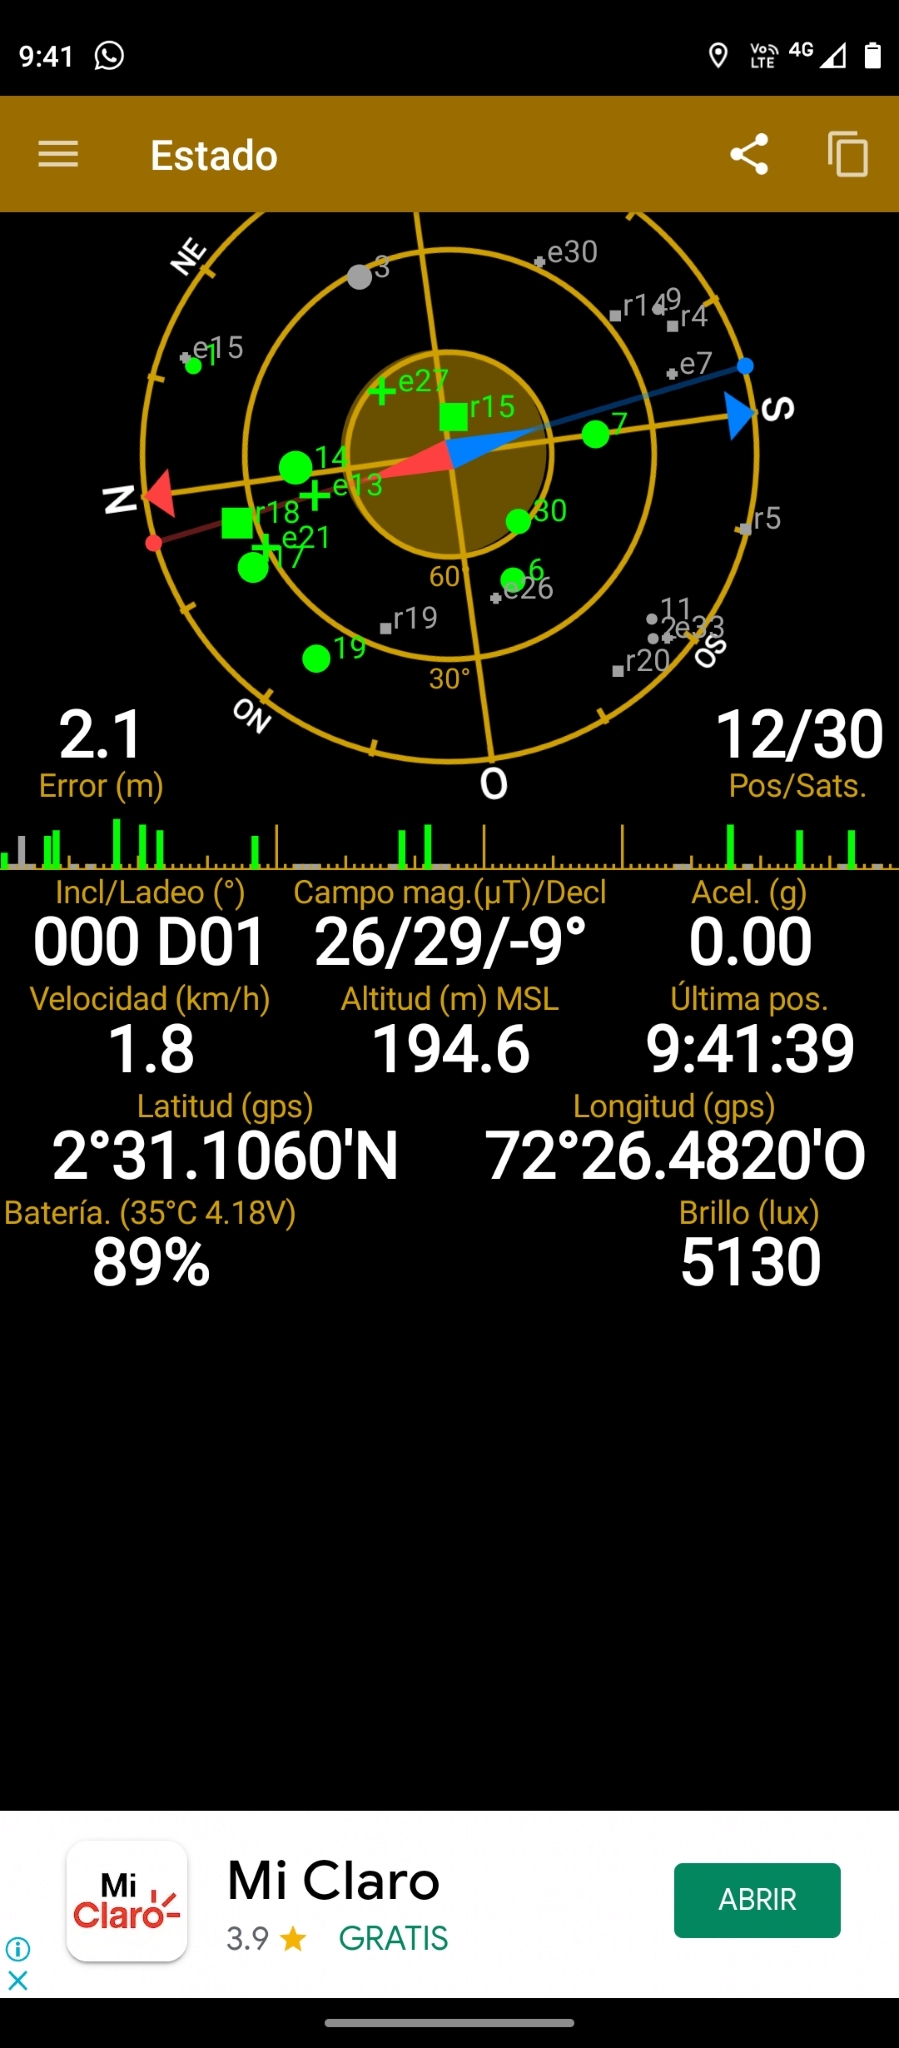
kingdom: Fungi
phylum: Basidiomycota
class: Agaricomycetes
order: Polyporales
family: Polyporaceae
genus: Trametes
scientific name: Trametes lactinea
